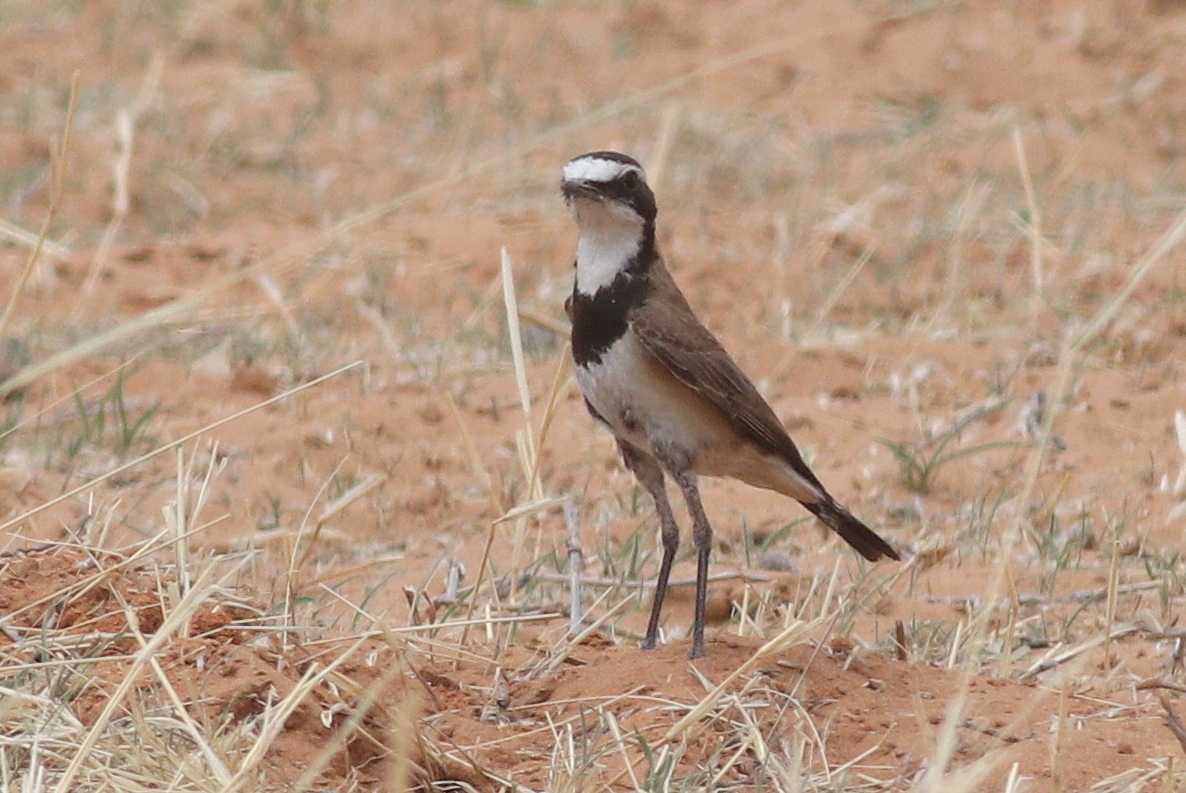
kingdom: Animalia
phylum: Chordata
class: Aves
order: Passeriformes
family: Muscicapidae
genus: Oenanthe
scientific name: Oenanthe pileata
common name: Capped wheatear
